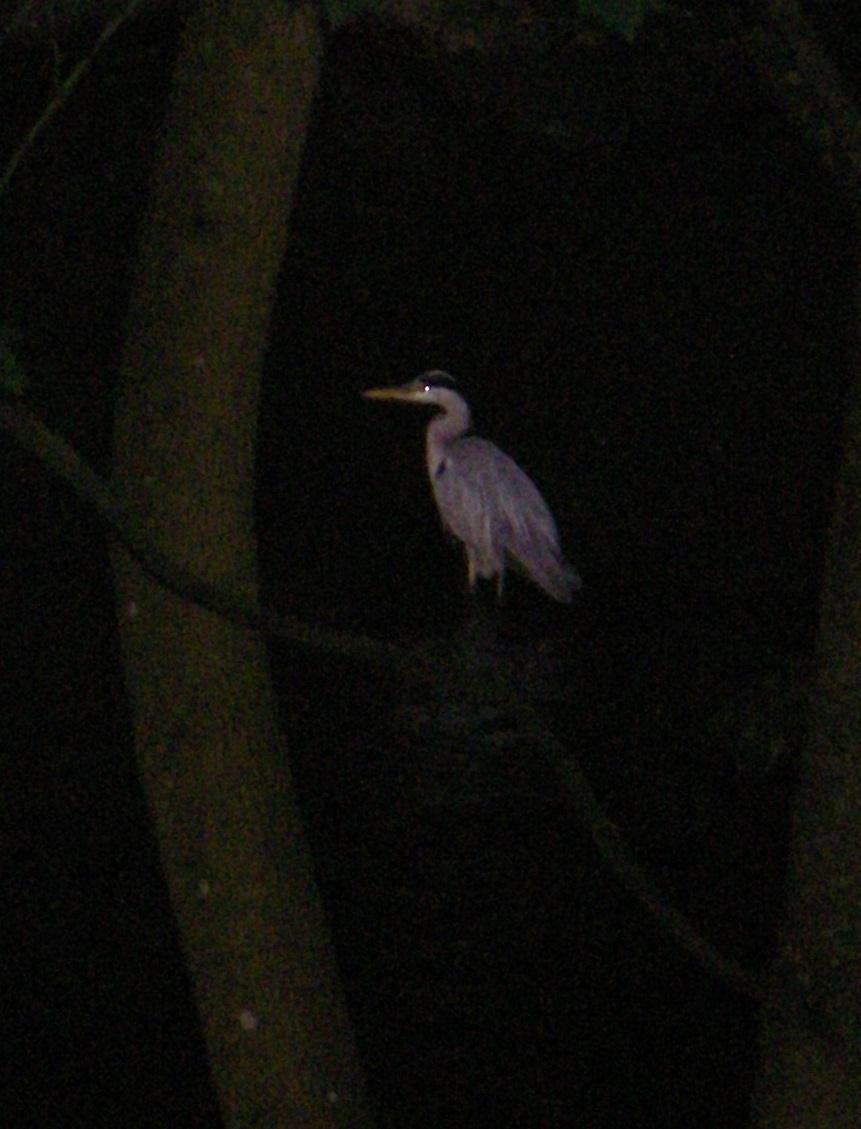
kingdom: Animalia
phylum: Chordata
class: Aves
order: Pelecaniformes
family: Ardeidae
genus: Ardea
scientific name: Ardea cinerea
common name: Grey heron
